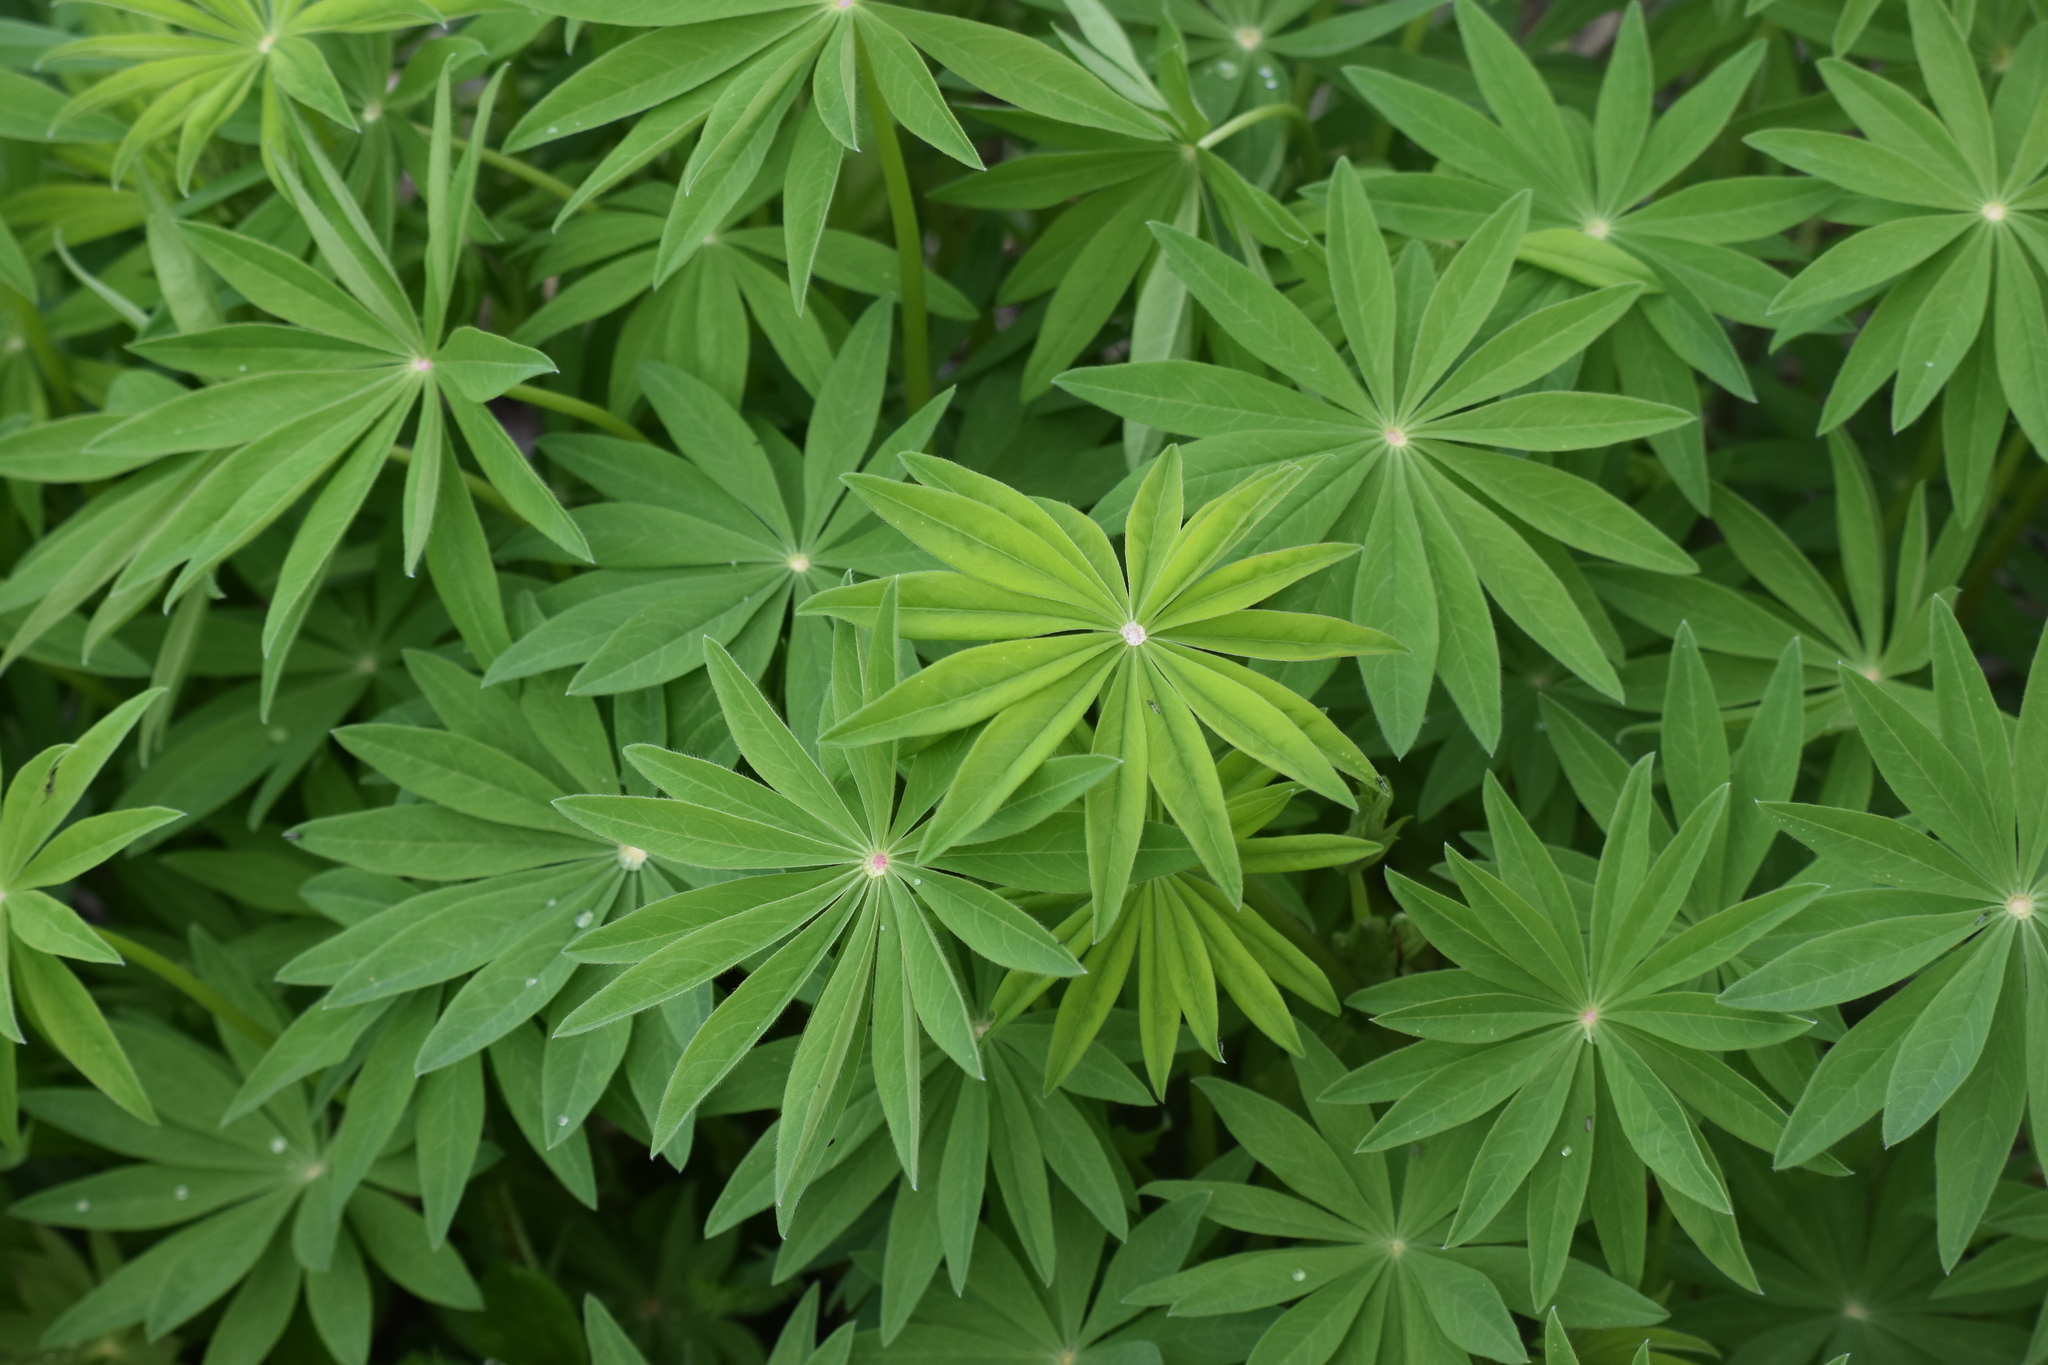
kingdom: Plantae
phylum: Tracheophyta
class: Magnoliopsida
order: Fabales
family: Fabaceae
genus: Lupinus
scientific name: Lupinus polyphyllus
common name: Garden lupin
